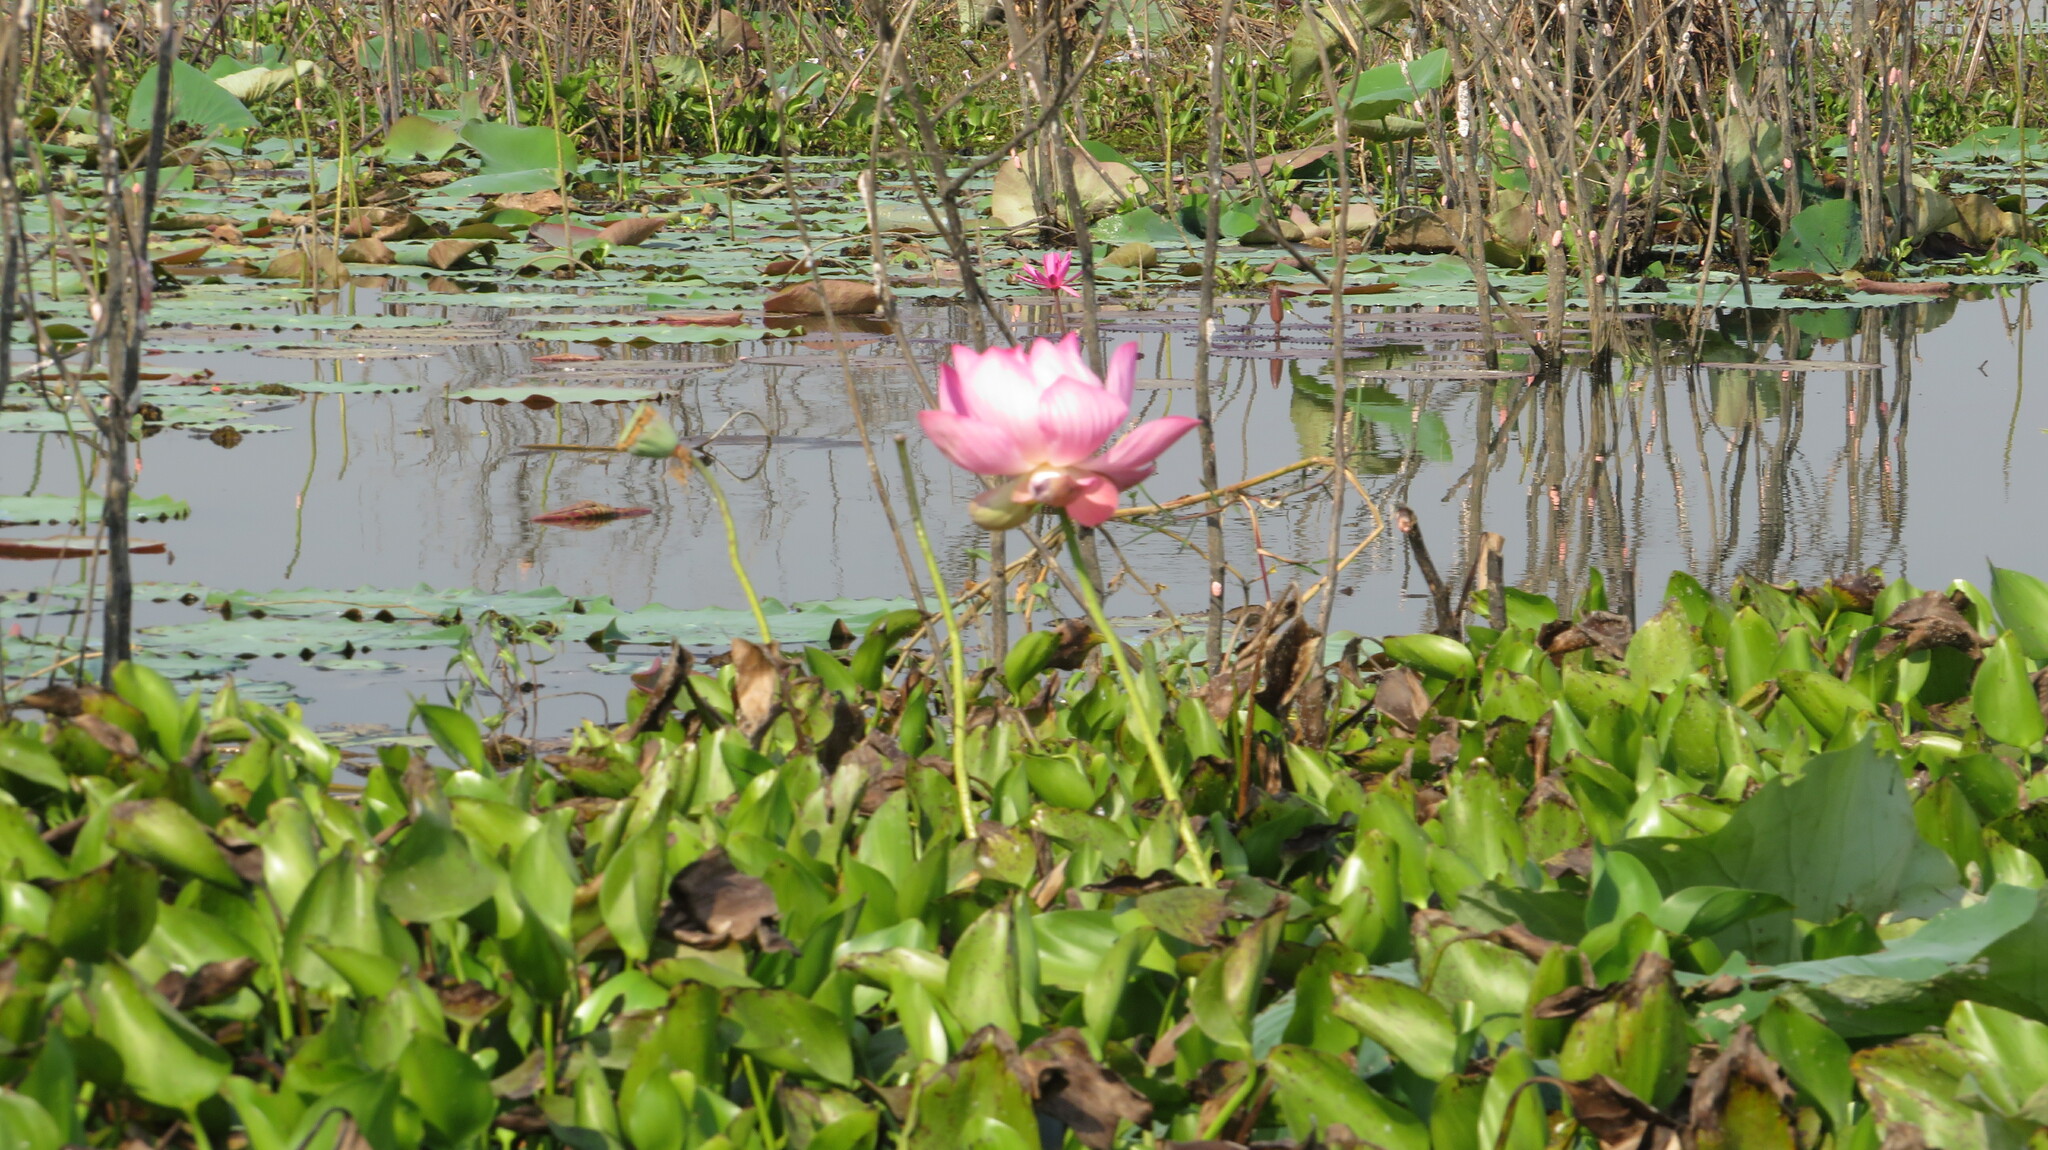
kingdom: Plantae
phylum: Tracheophyta
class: Magnoliopsida
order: Proteales
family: Nelumbonaceae
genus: Nelumbo
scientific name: Nelumbo nucifera
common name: Sacred lotus
